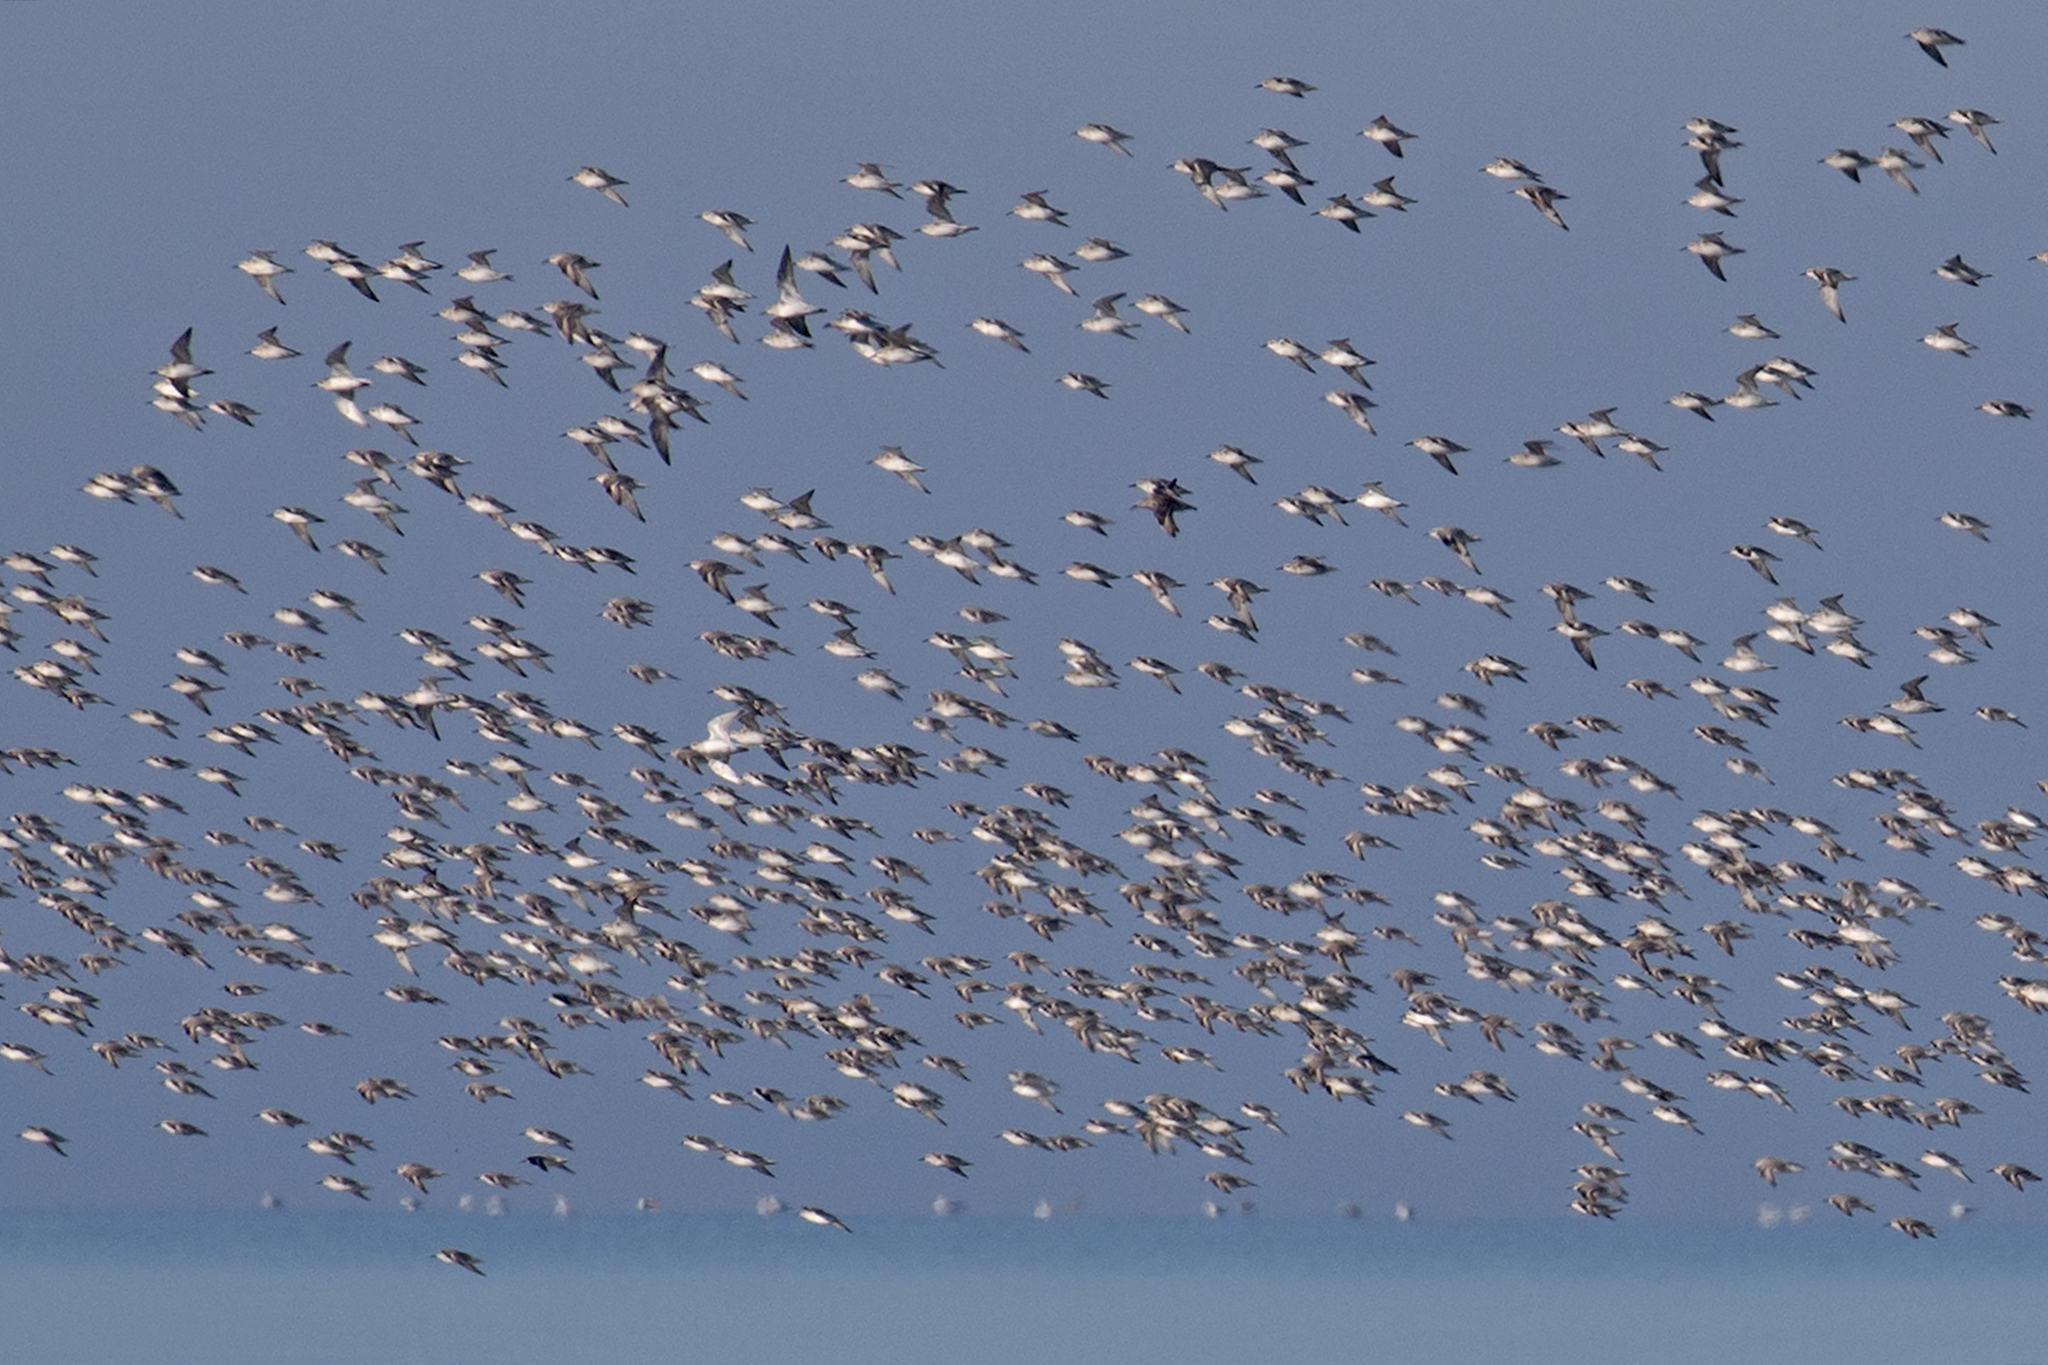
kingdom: Animalia
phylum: Chordata
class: Aves
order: Charadriiformes
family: Scolopacidae
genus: Calidris
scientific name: Calidris alba
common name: Sanderling
